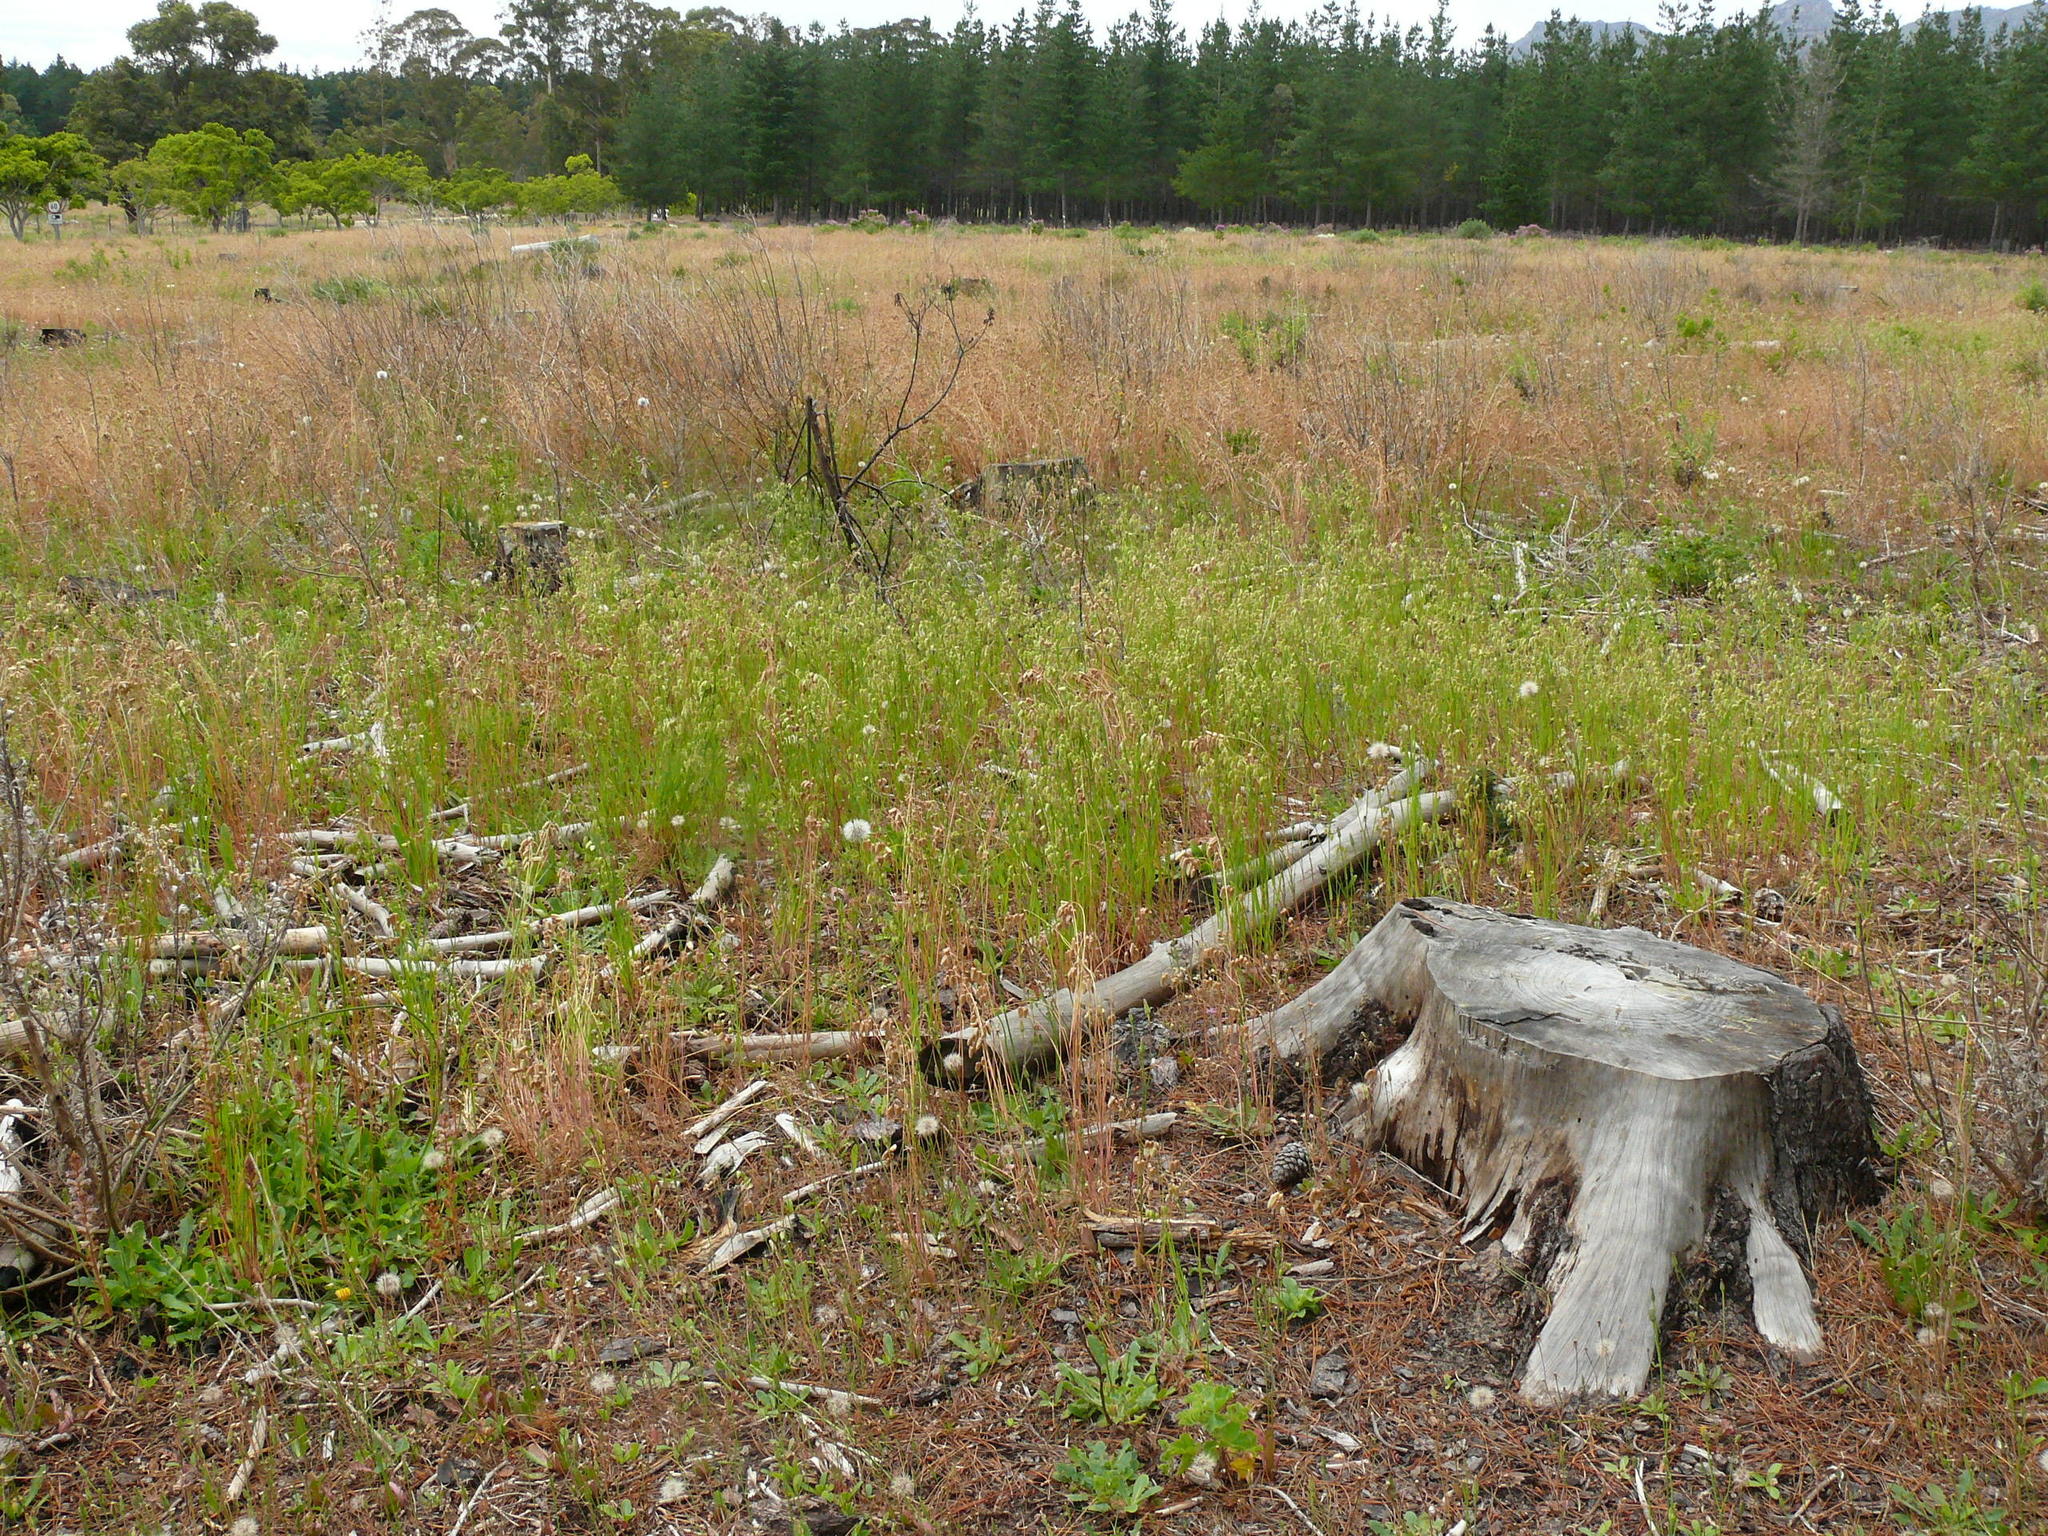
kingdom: Plantae
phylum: Tracheophyta
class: Liliopsida
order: Poales
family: Poaceae
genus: Briza
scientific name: Briza maxima
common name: Big quakinggrass
